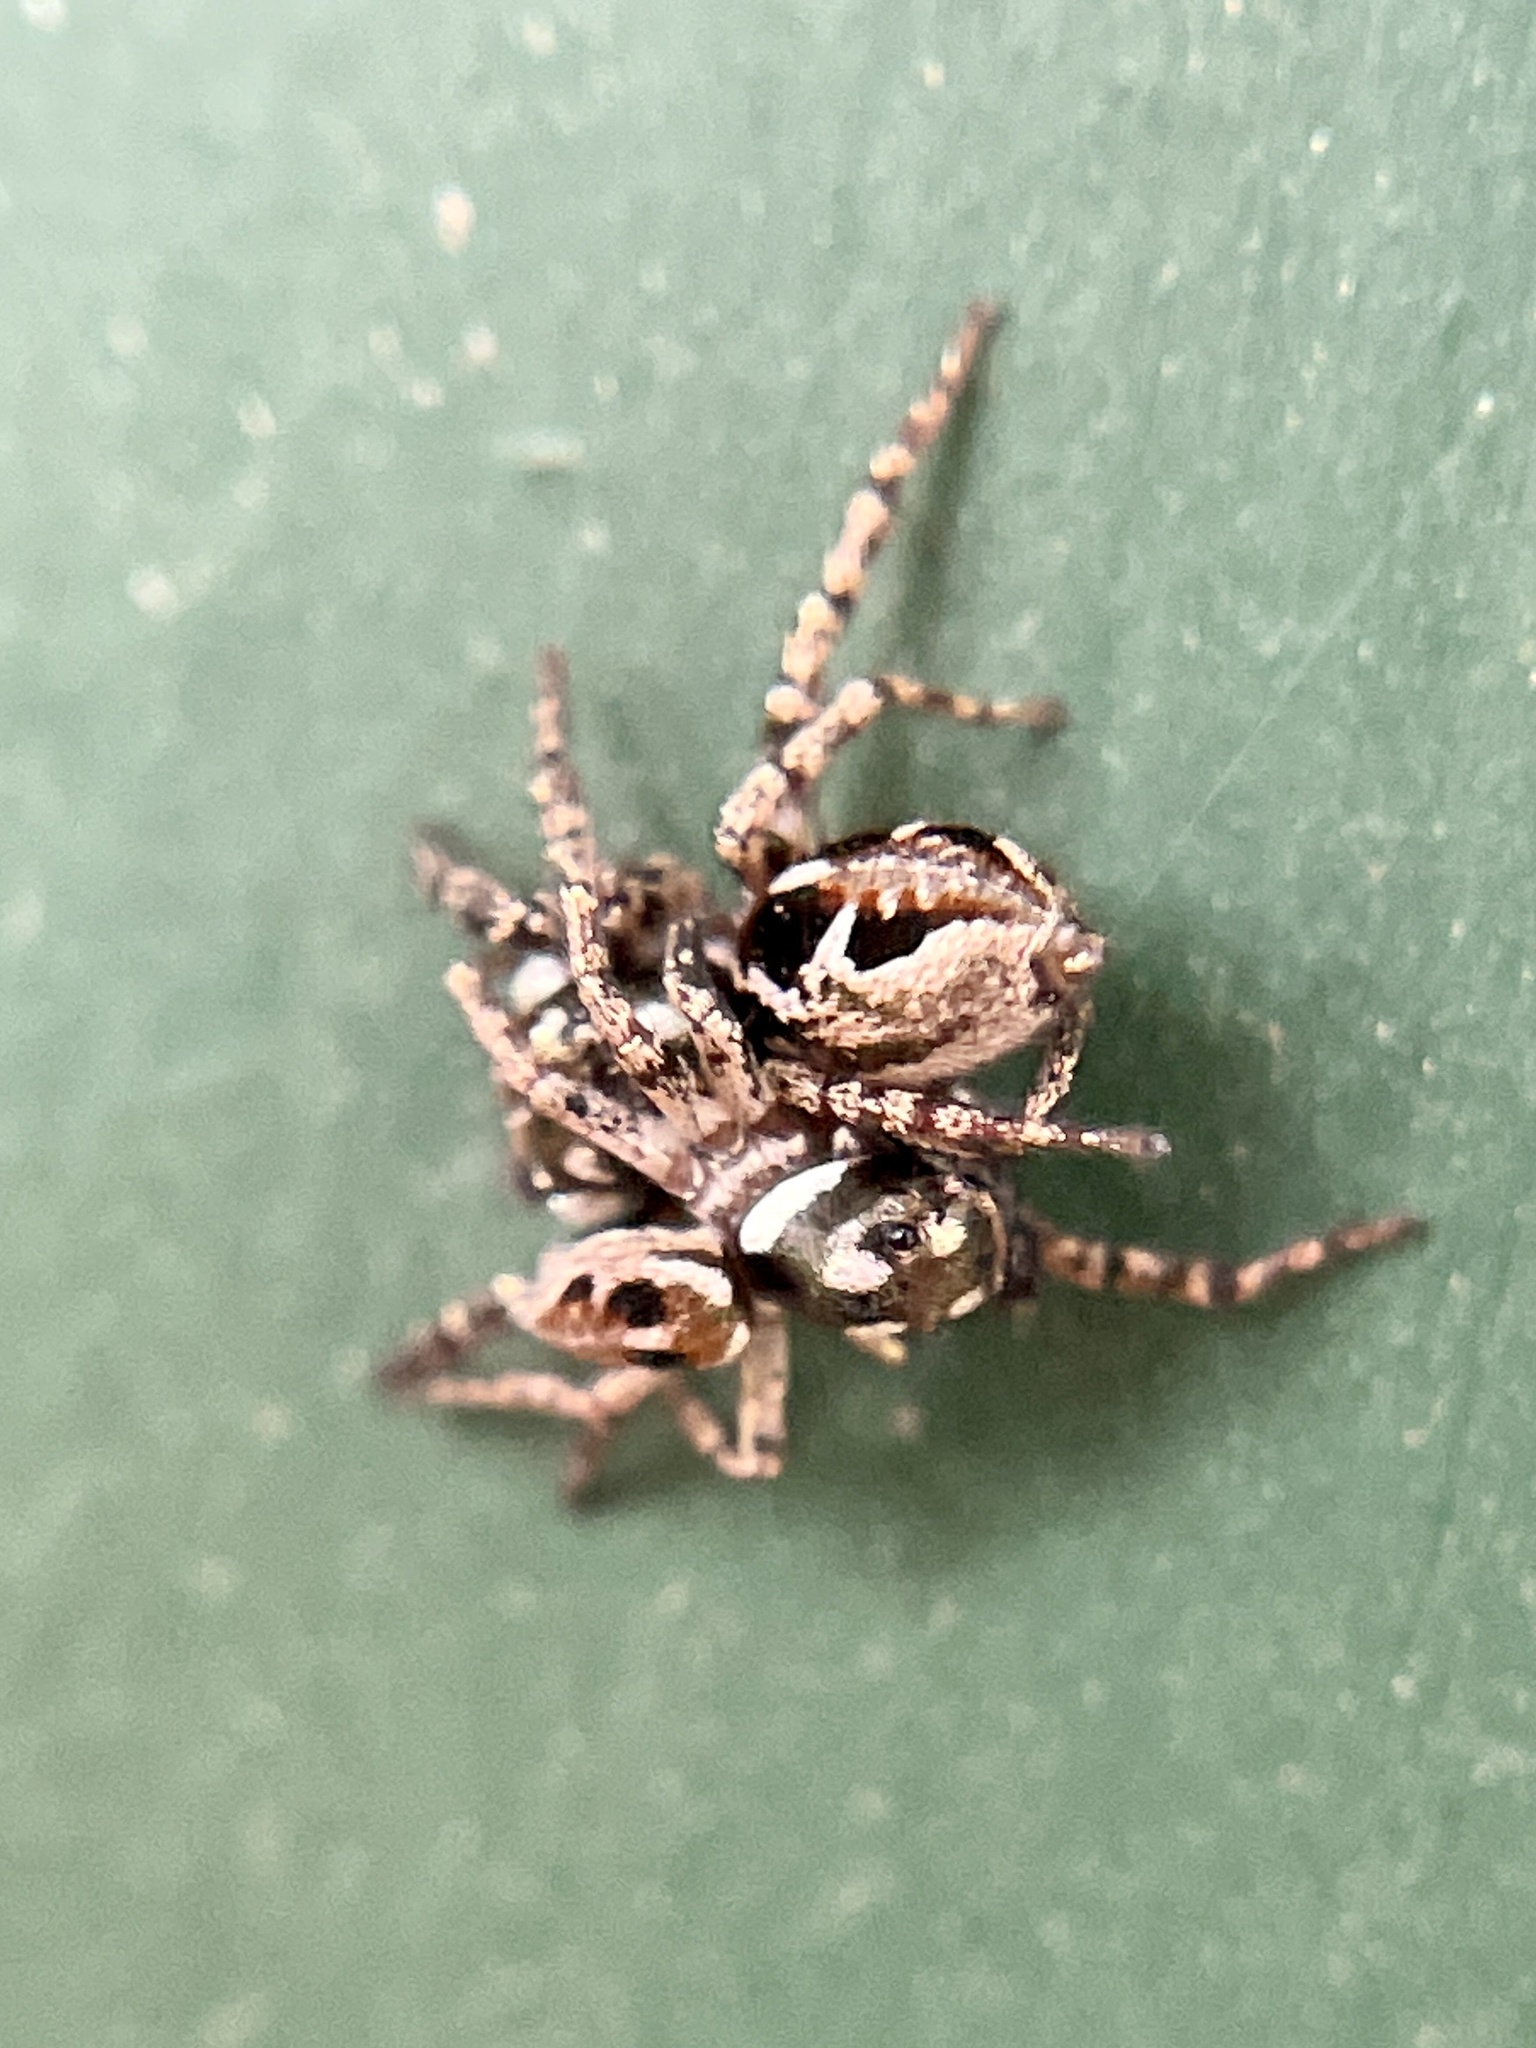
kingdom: Animalia
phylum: Arthropoda
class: Arachnida
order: Araneae
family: Salticidae
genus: Anasaitis
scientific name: Anasaitis canosa
